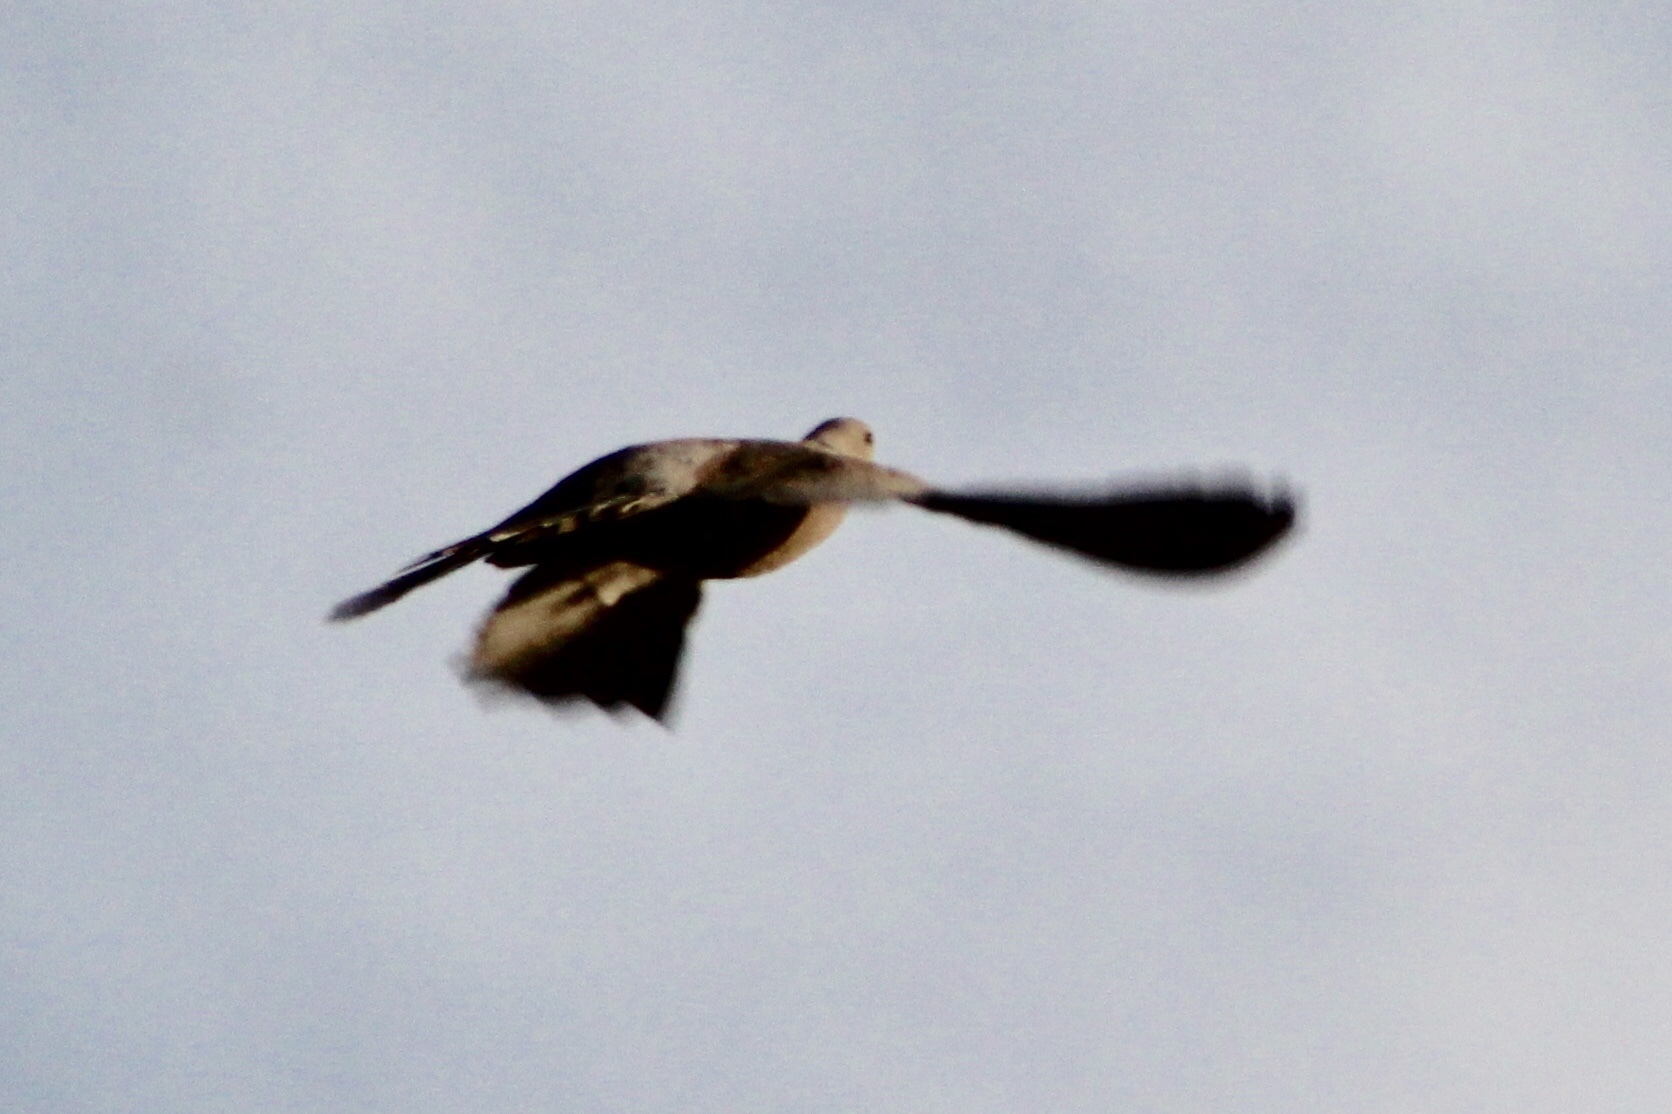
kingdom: Animalia
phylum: Chordata
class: Aves
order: Columbiformes
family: Columbidae
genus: Streptopelia
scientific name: Streptopelia decaocto
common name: Eurasian collared dove
